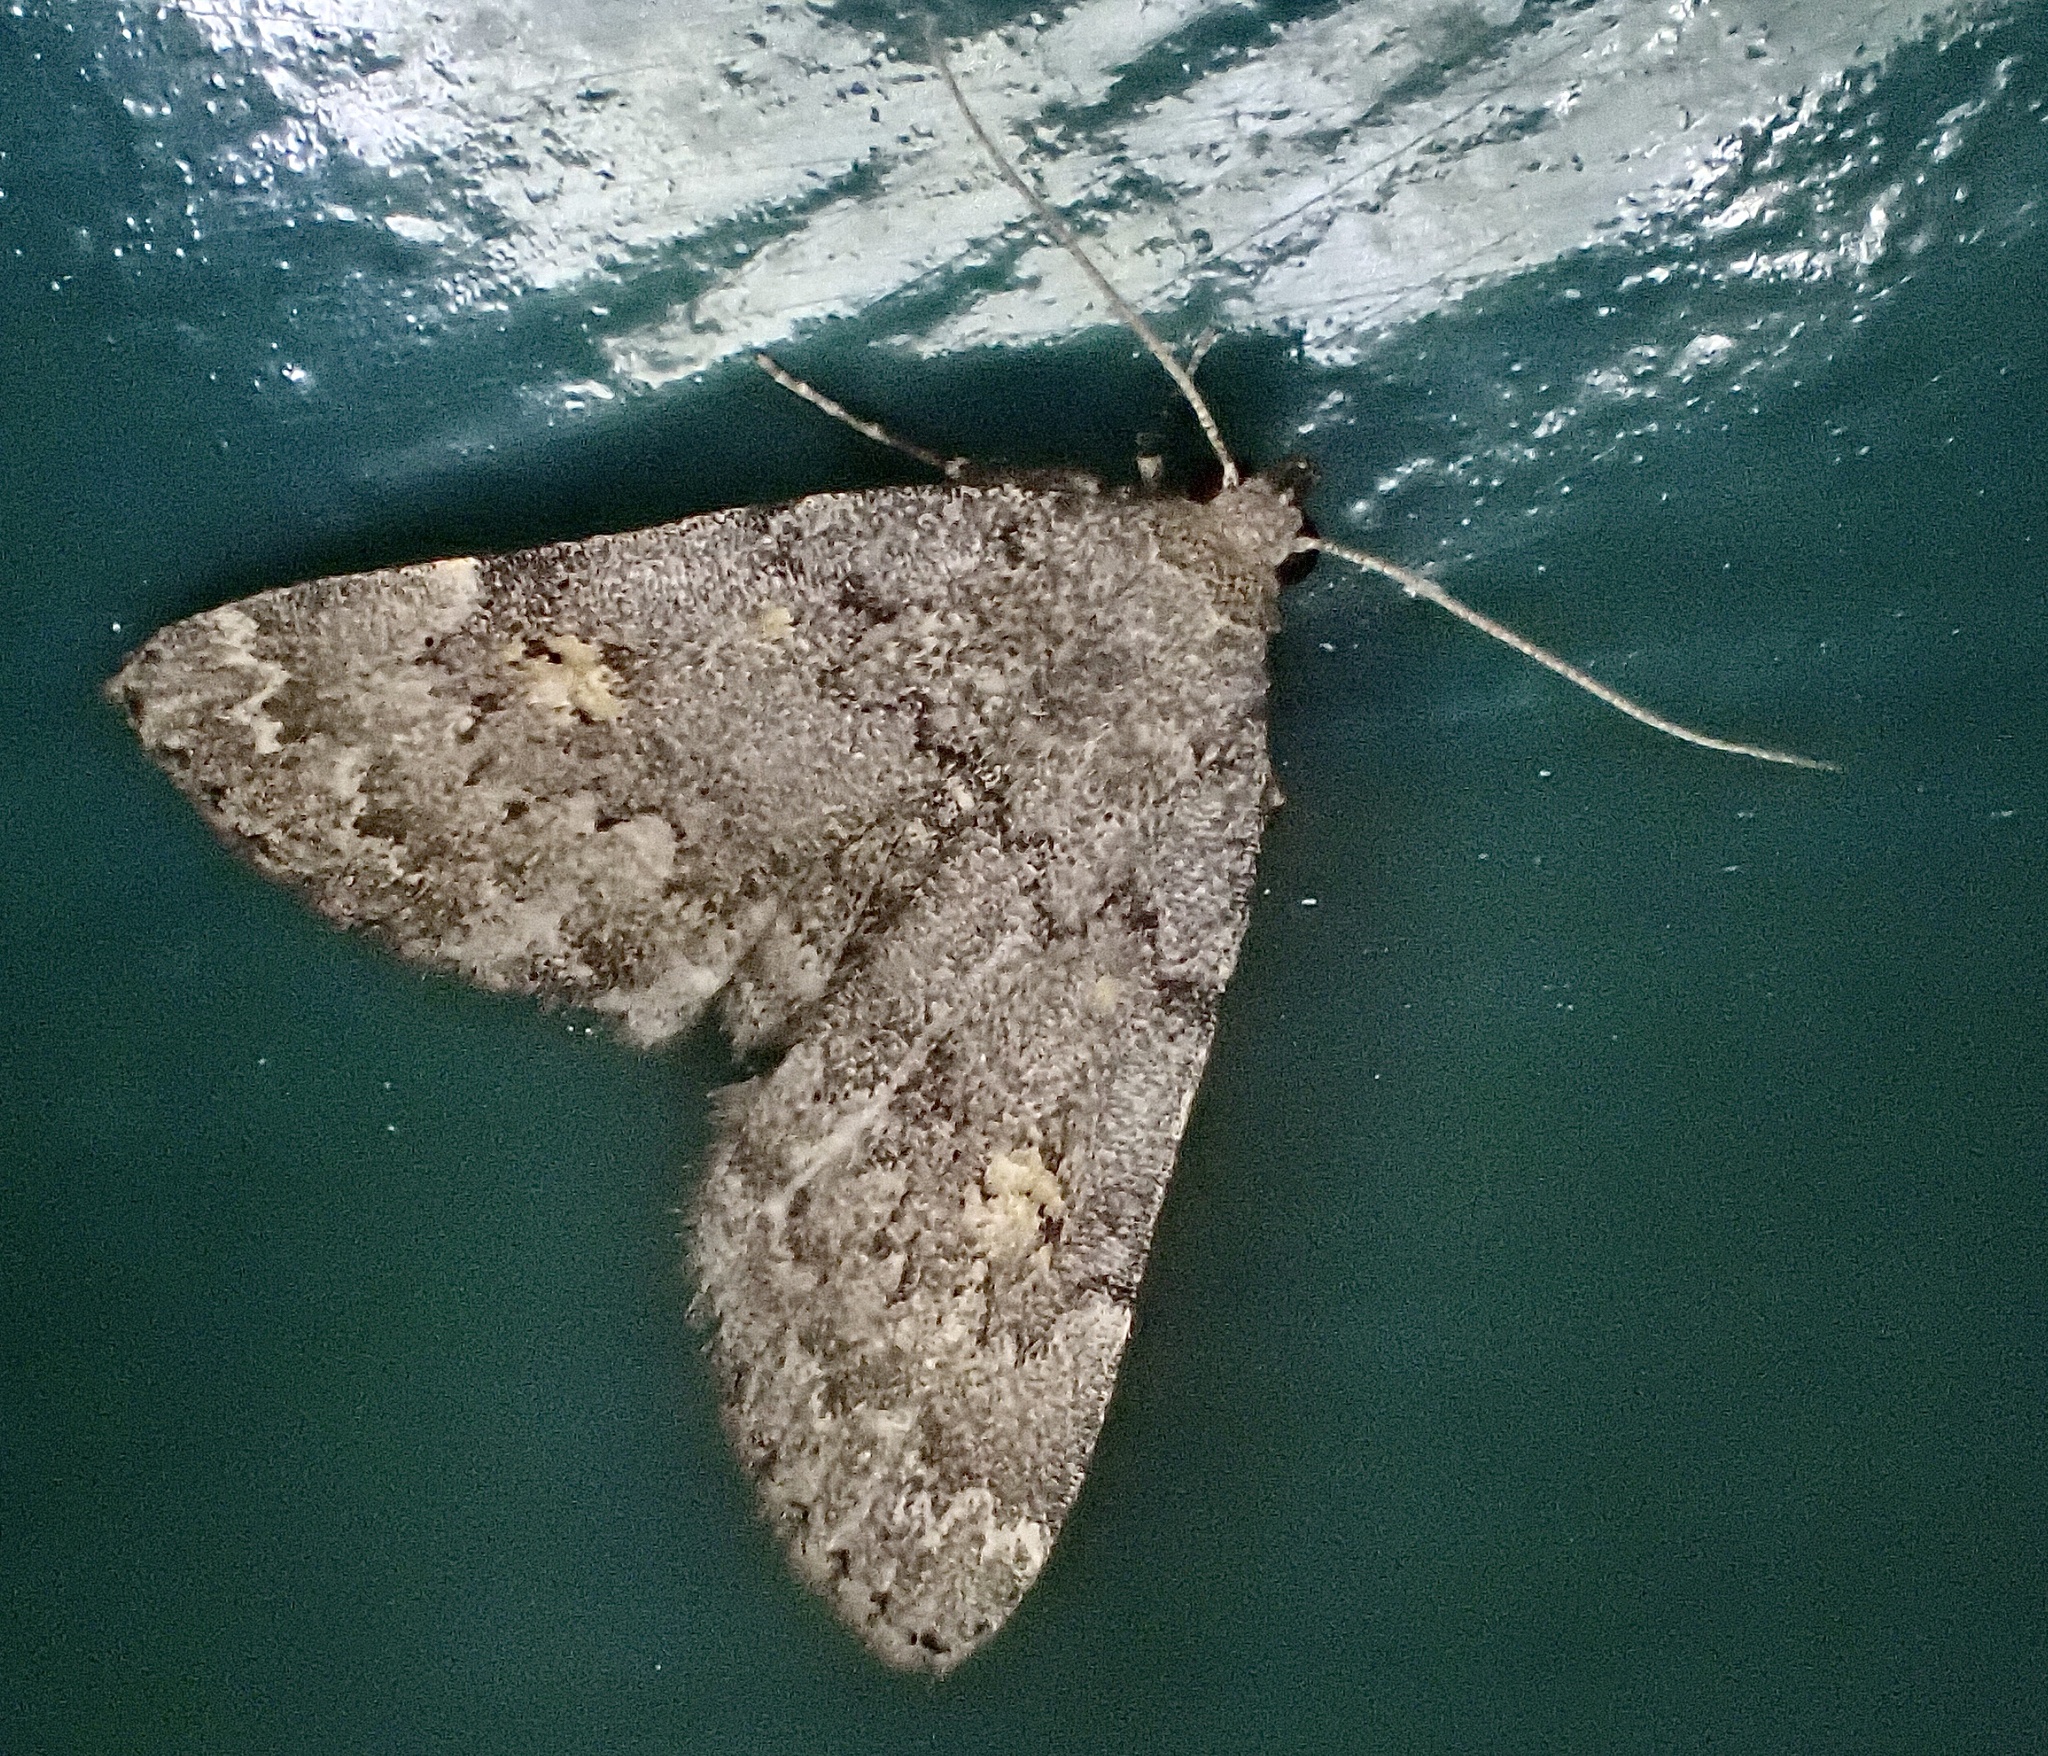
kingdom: Animalia
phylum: Arthropoda
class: Insecta
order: Lepidoptera
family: Erebidae
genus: Idia
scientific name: Idia aemula
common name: Common idia moth
